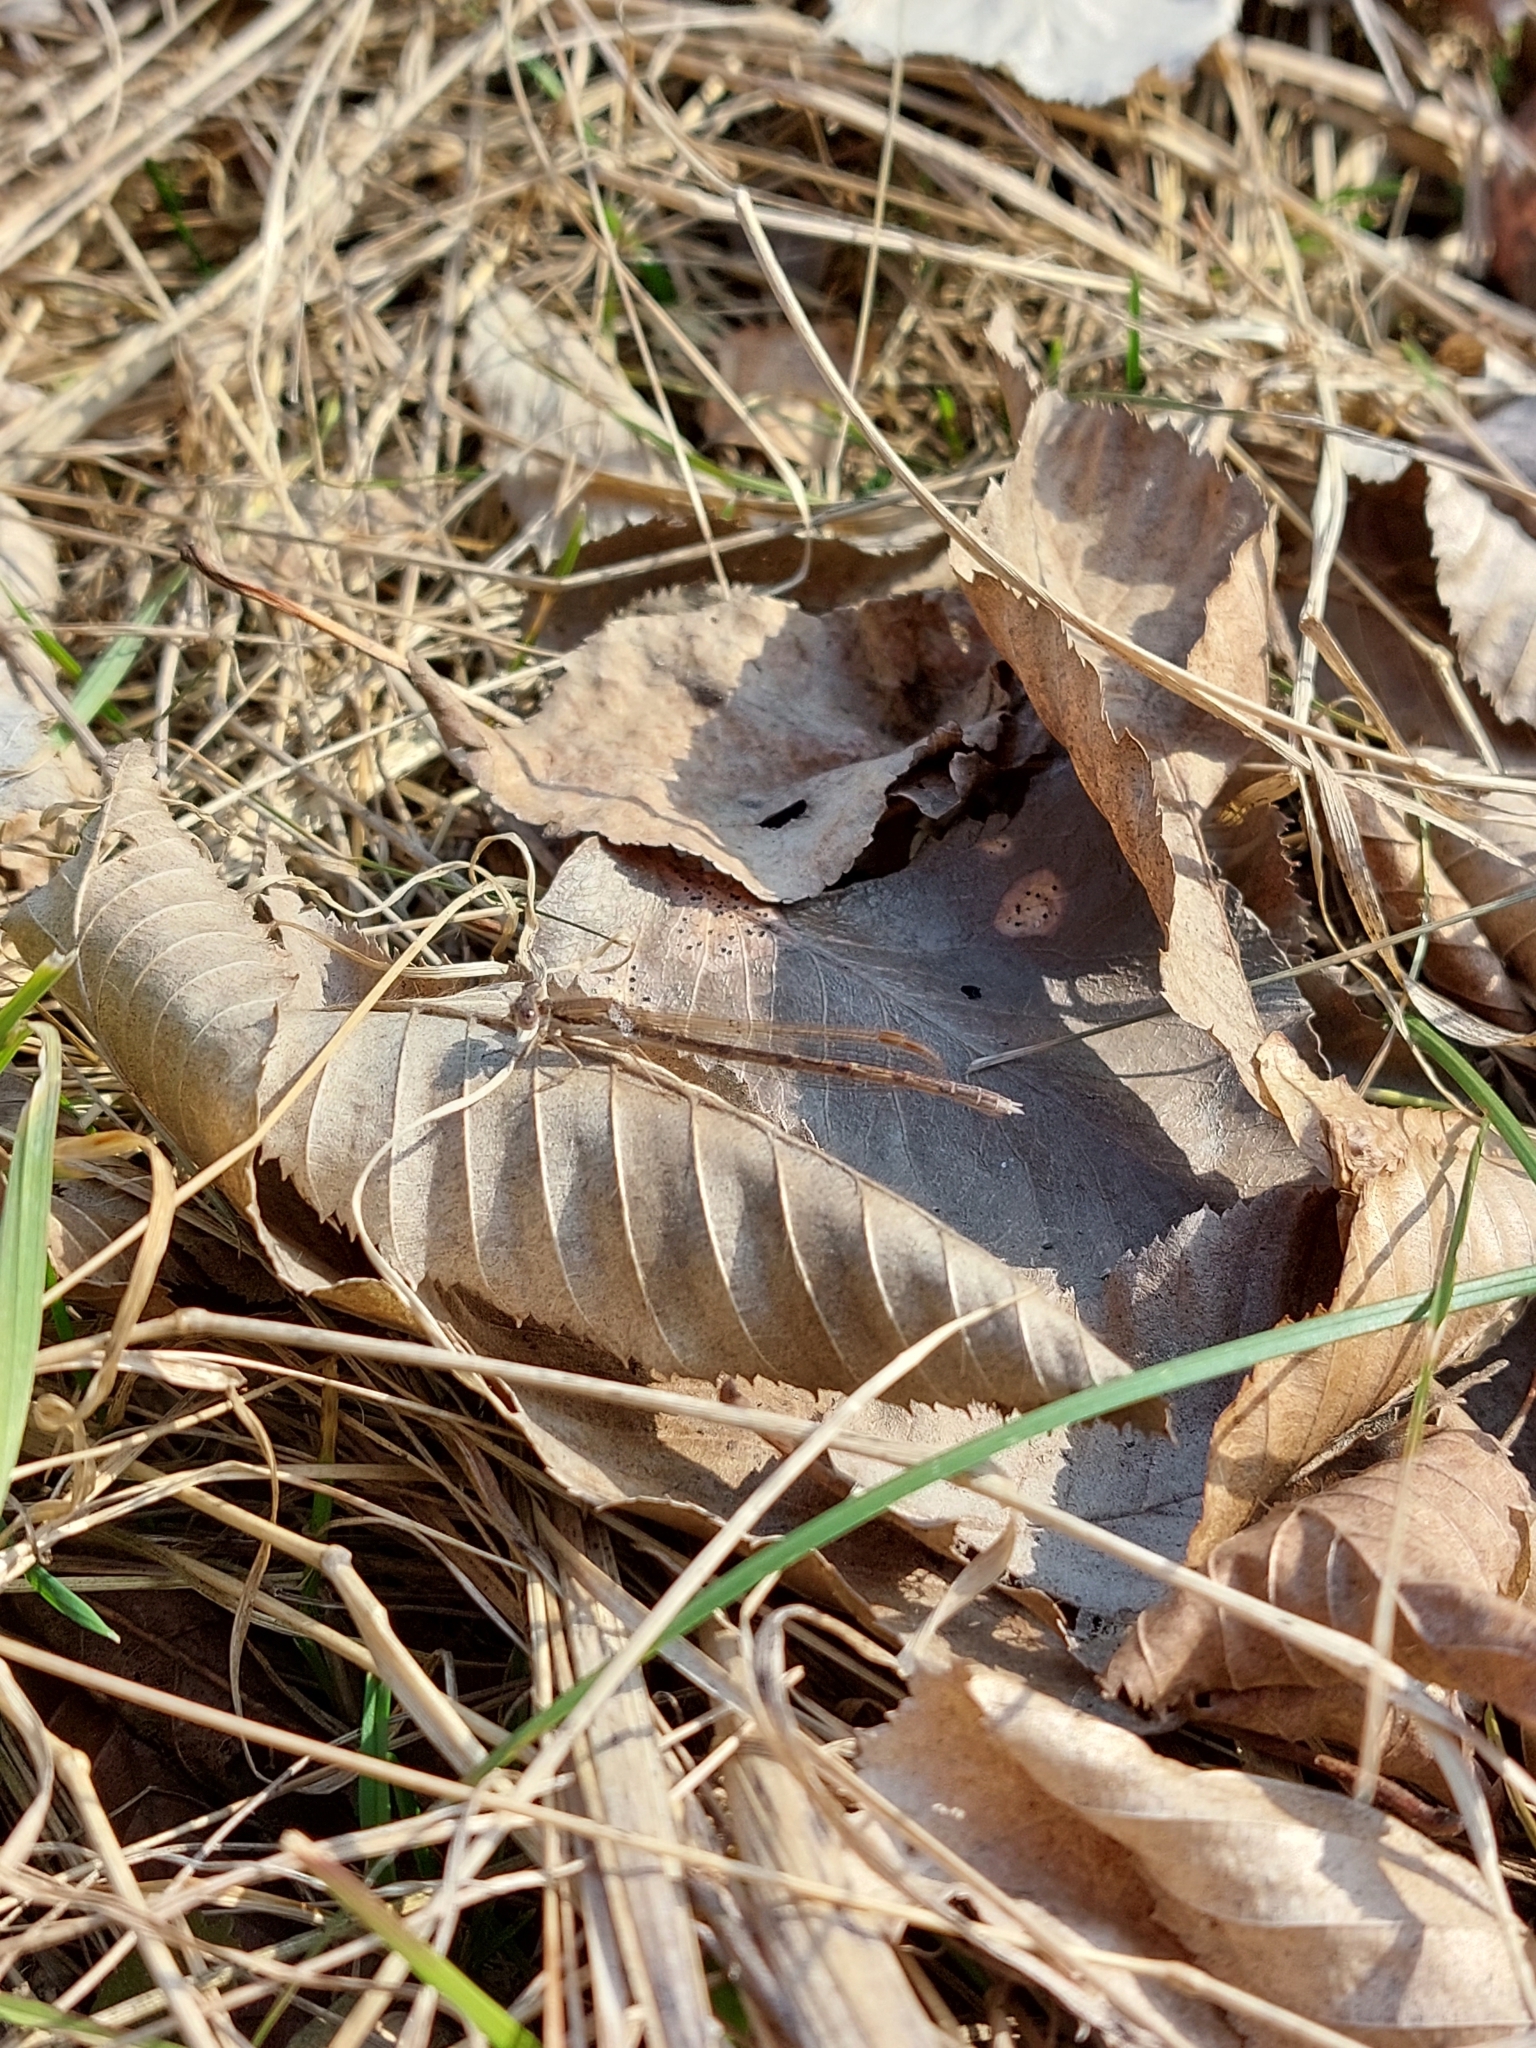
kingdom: Animalia
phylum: Arthropoda
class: Insecta
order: Odonata
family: Lestidae
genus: Sympecma
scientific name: Sympecma fusca
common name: Common winter damsel
